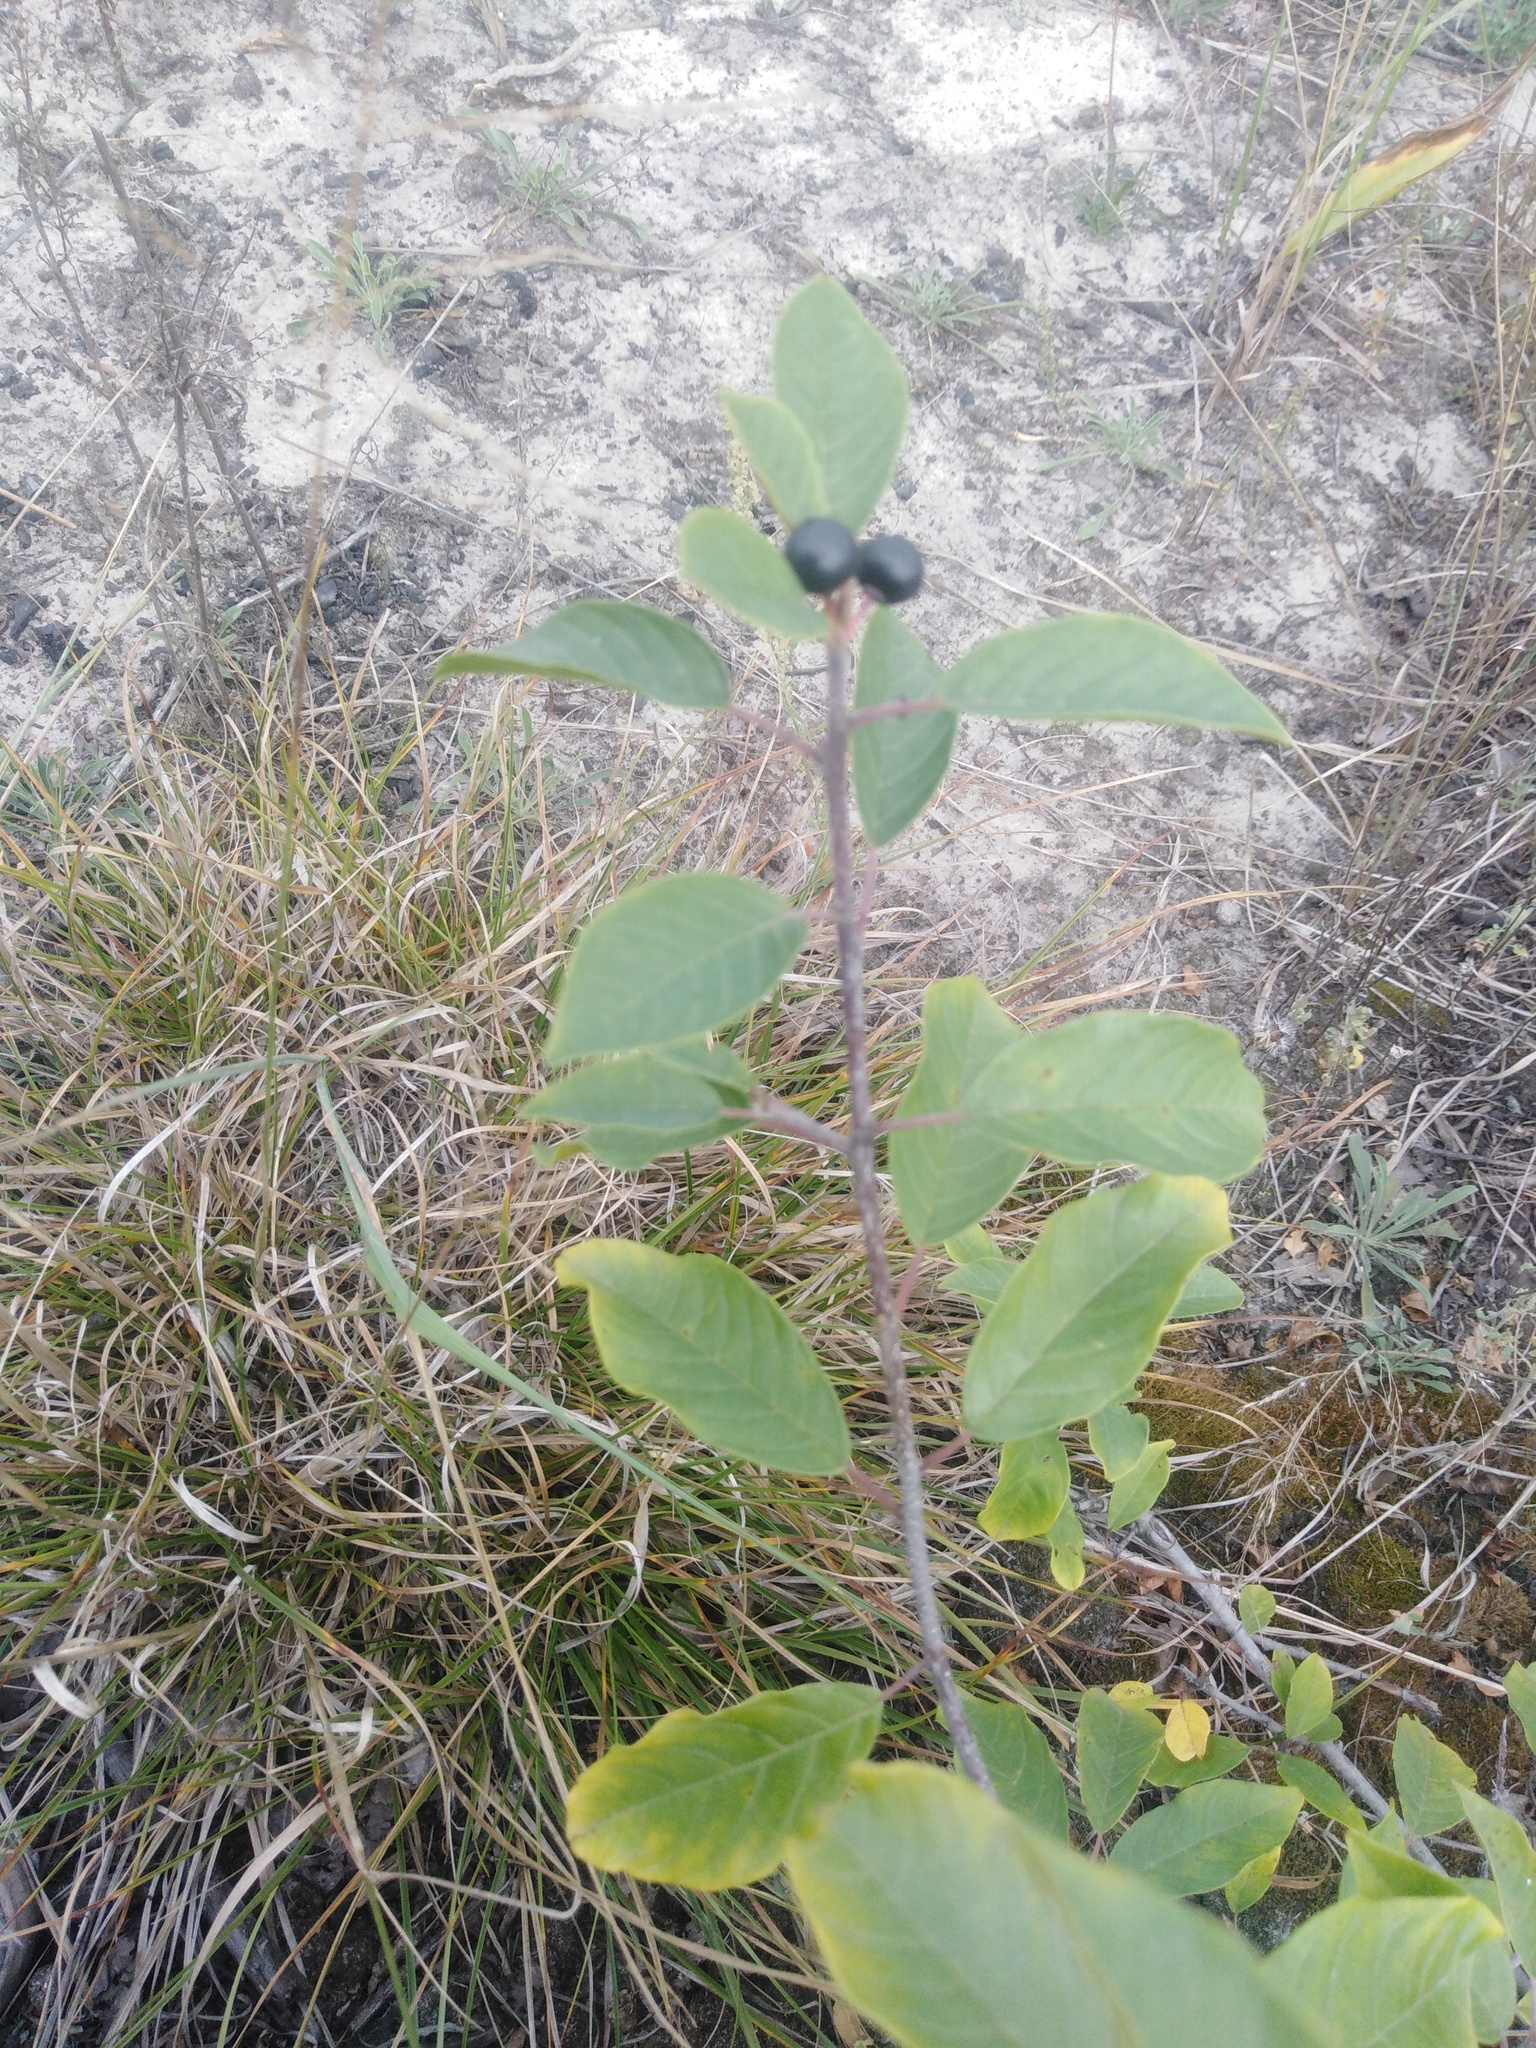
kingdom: Plantae
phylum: Tracheophyta
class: Magnoliopsida
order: Rosales
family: Rhamnaceae
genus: Frangula
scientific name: Frangula alnus
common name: Alder buckthorn
